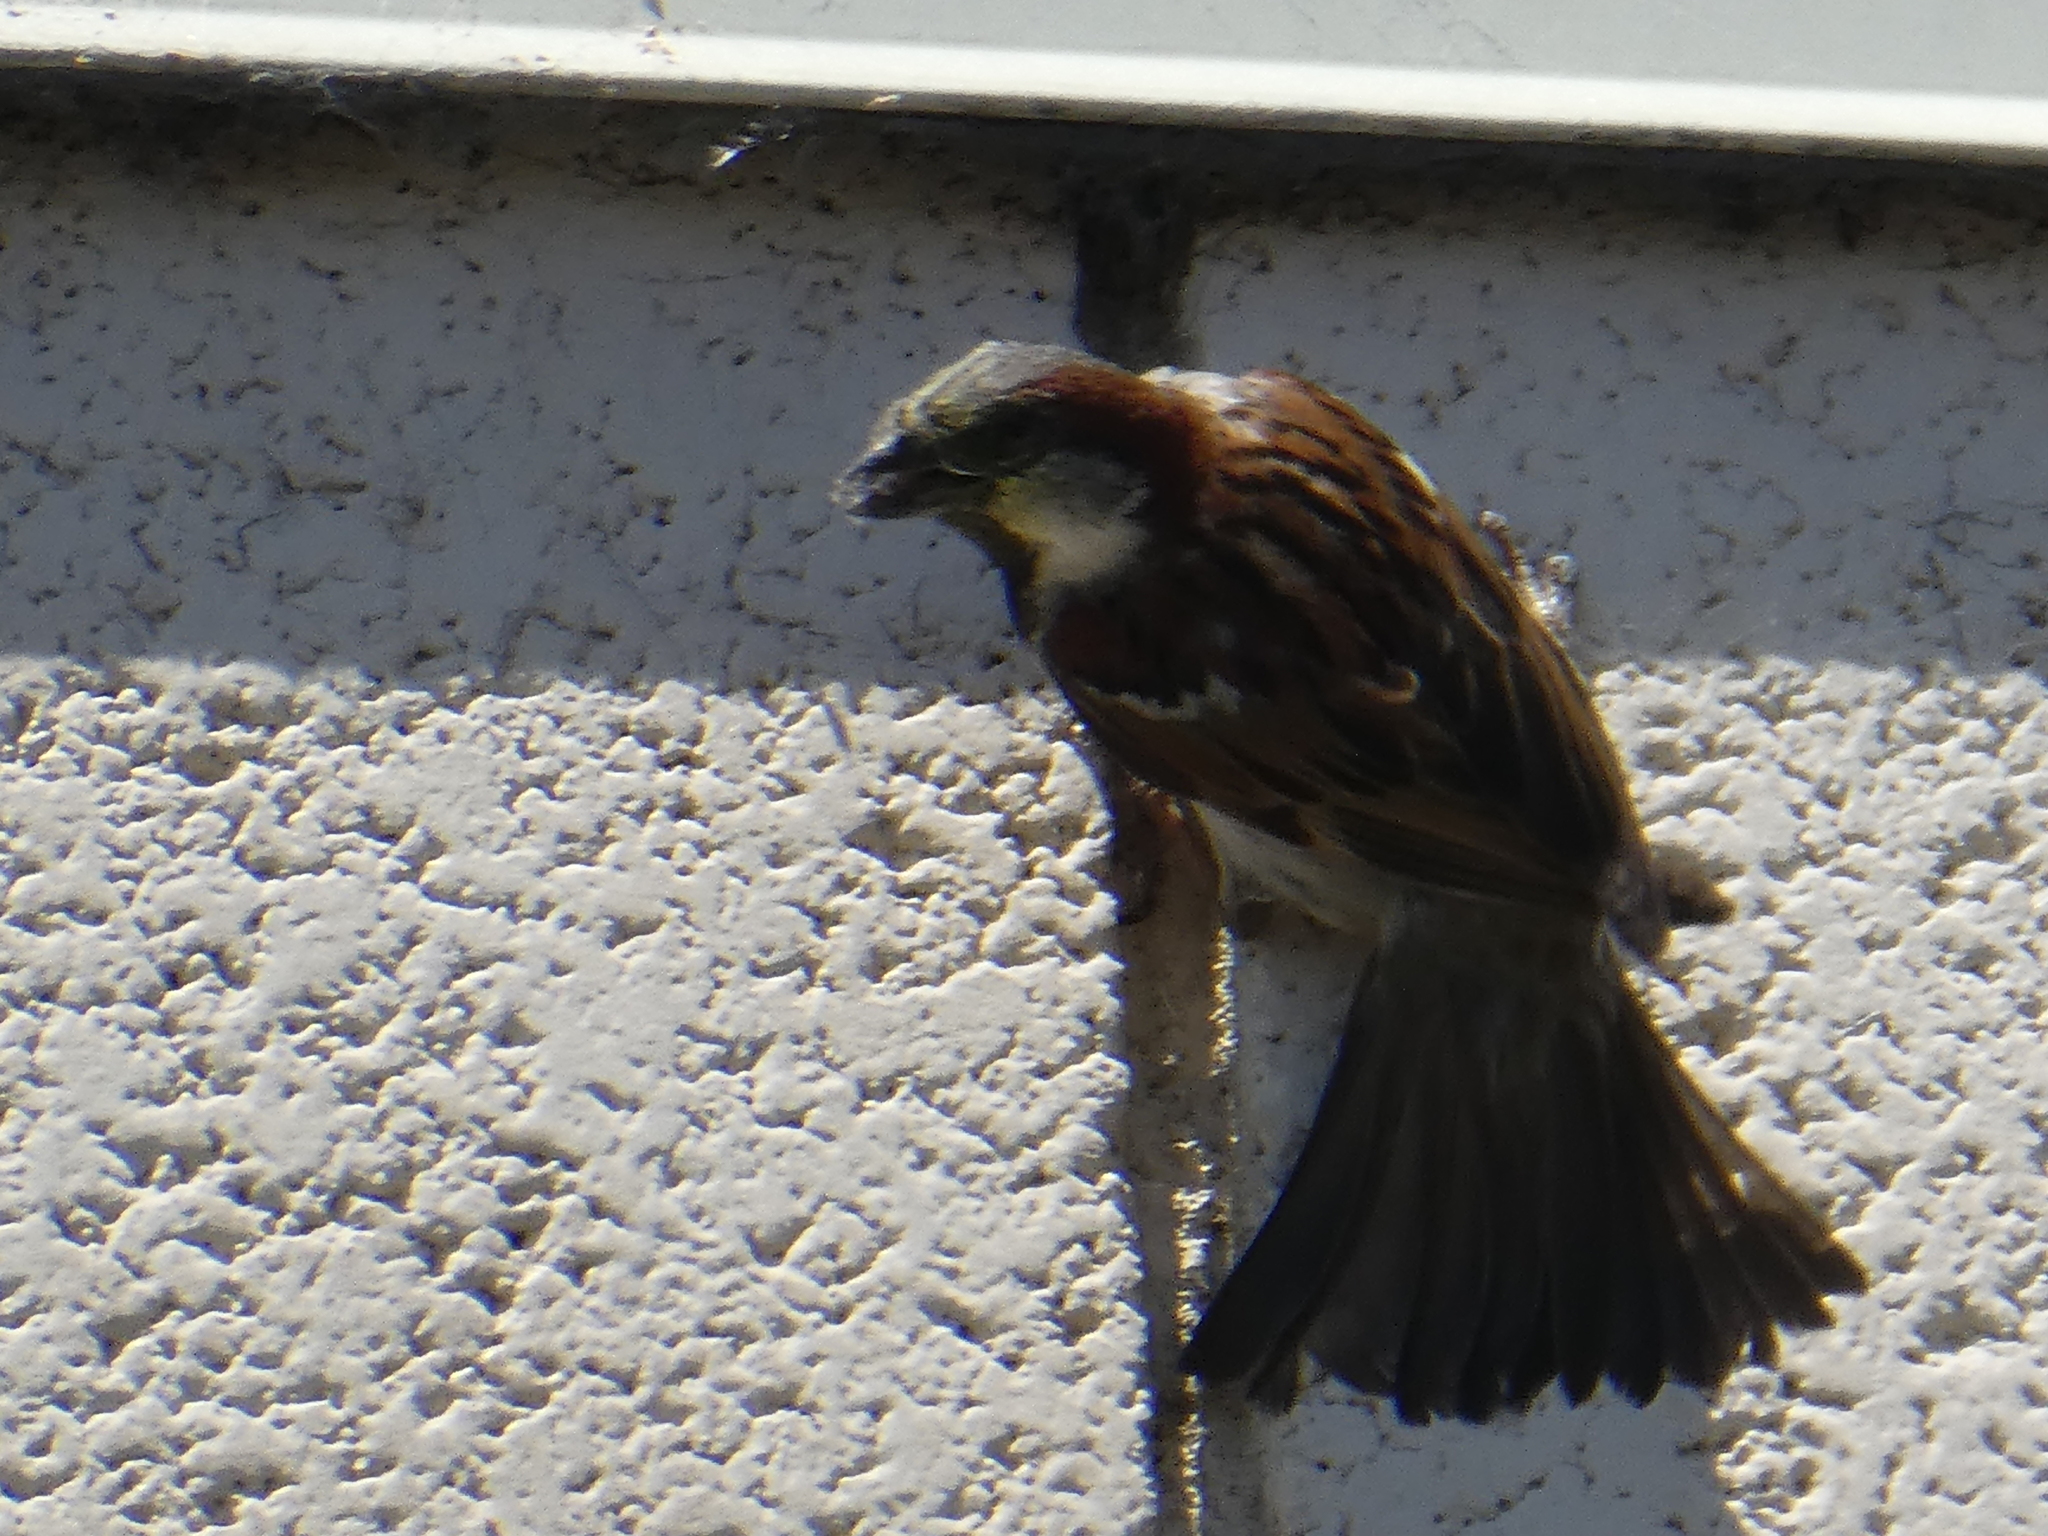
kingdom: Animalia
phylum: Chordata
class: Aves
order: Passeriformes
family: Passeridae
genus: Passer
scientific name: Passer domesticus
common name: House sparrow
